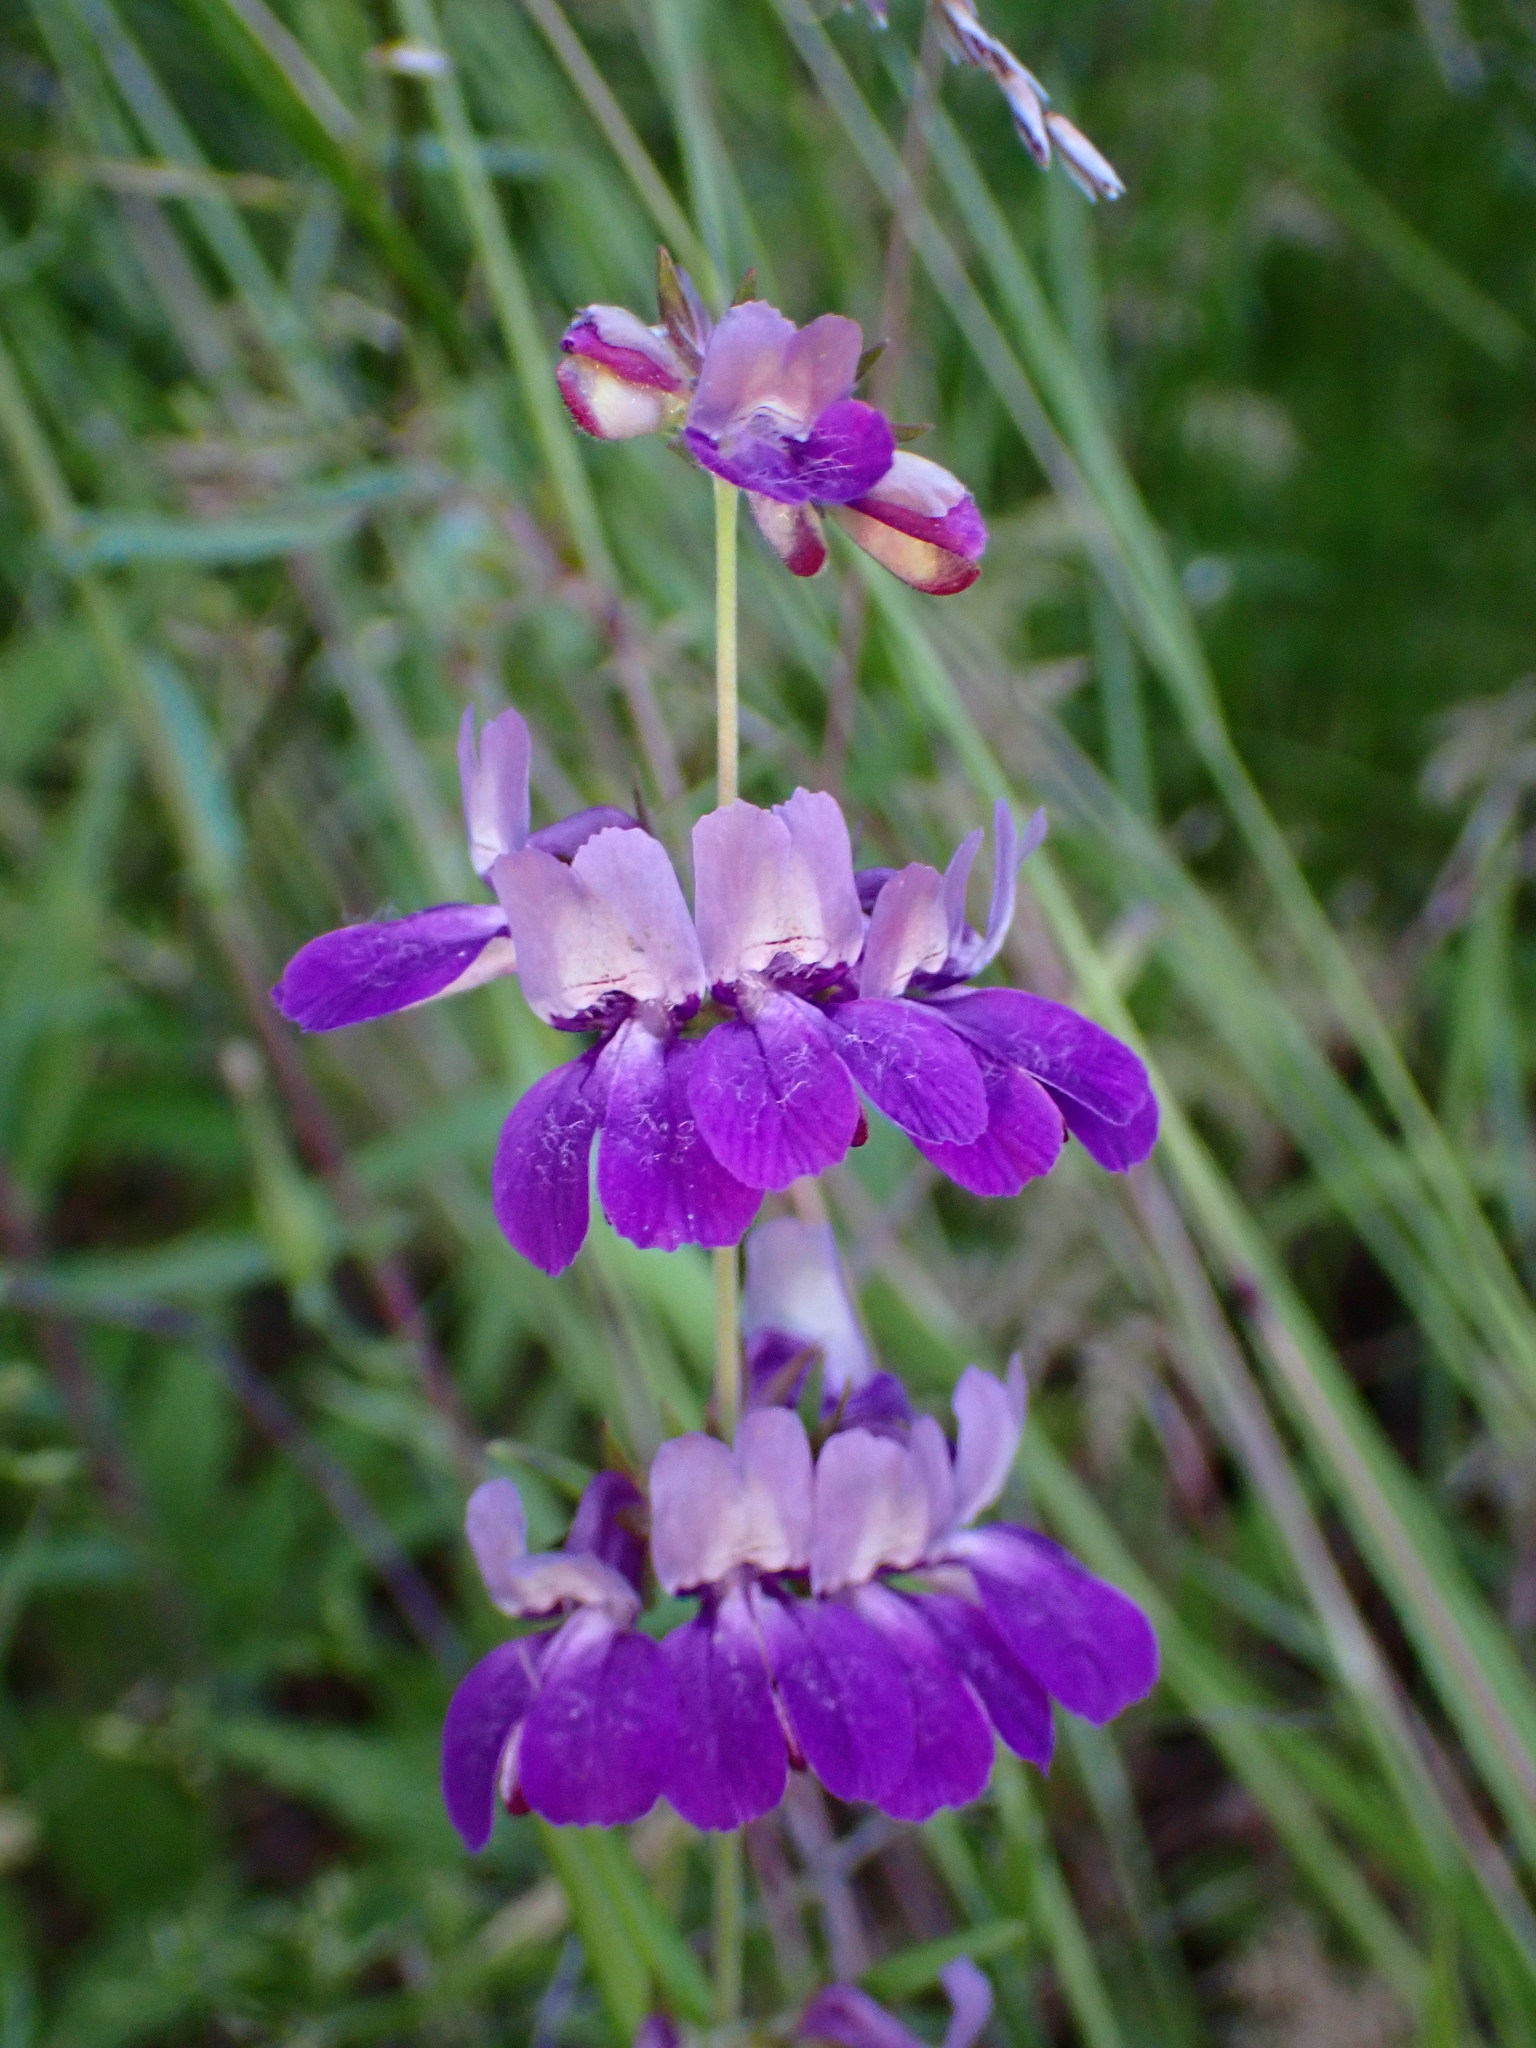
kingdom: Plantae
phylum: Tracheophyta
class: Magnoliopsida
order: Lamiales
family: Plantaginaceae
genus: Collinsia
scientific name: Collinsia heterophylla
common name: Chinese-houses
